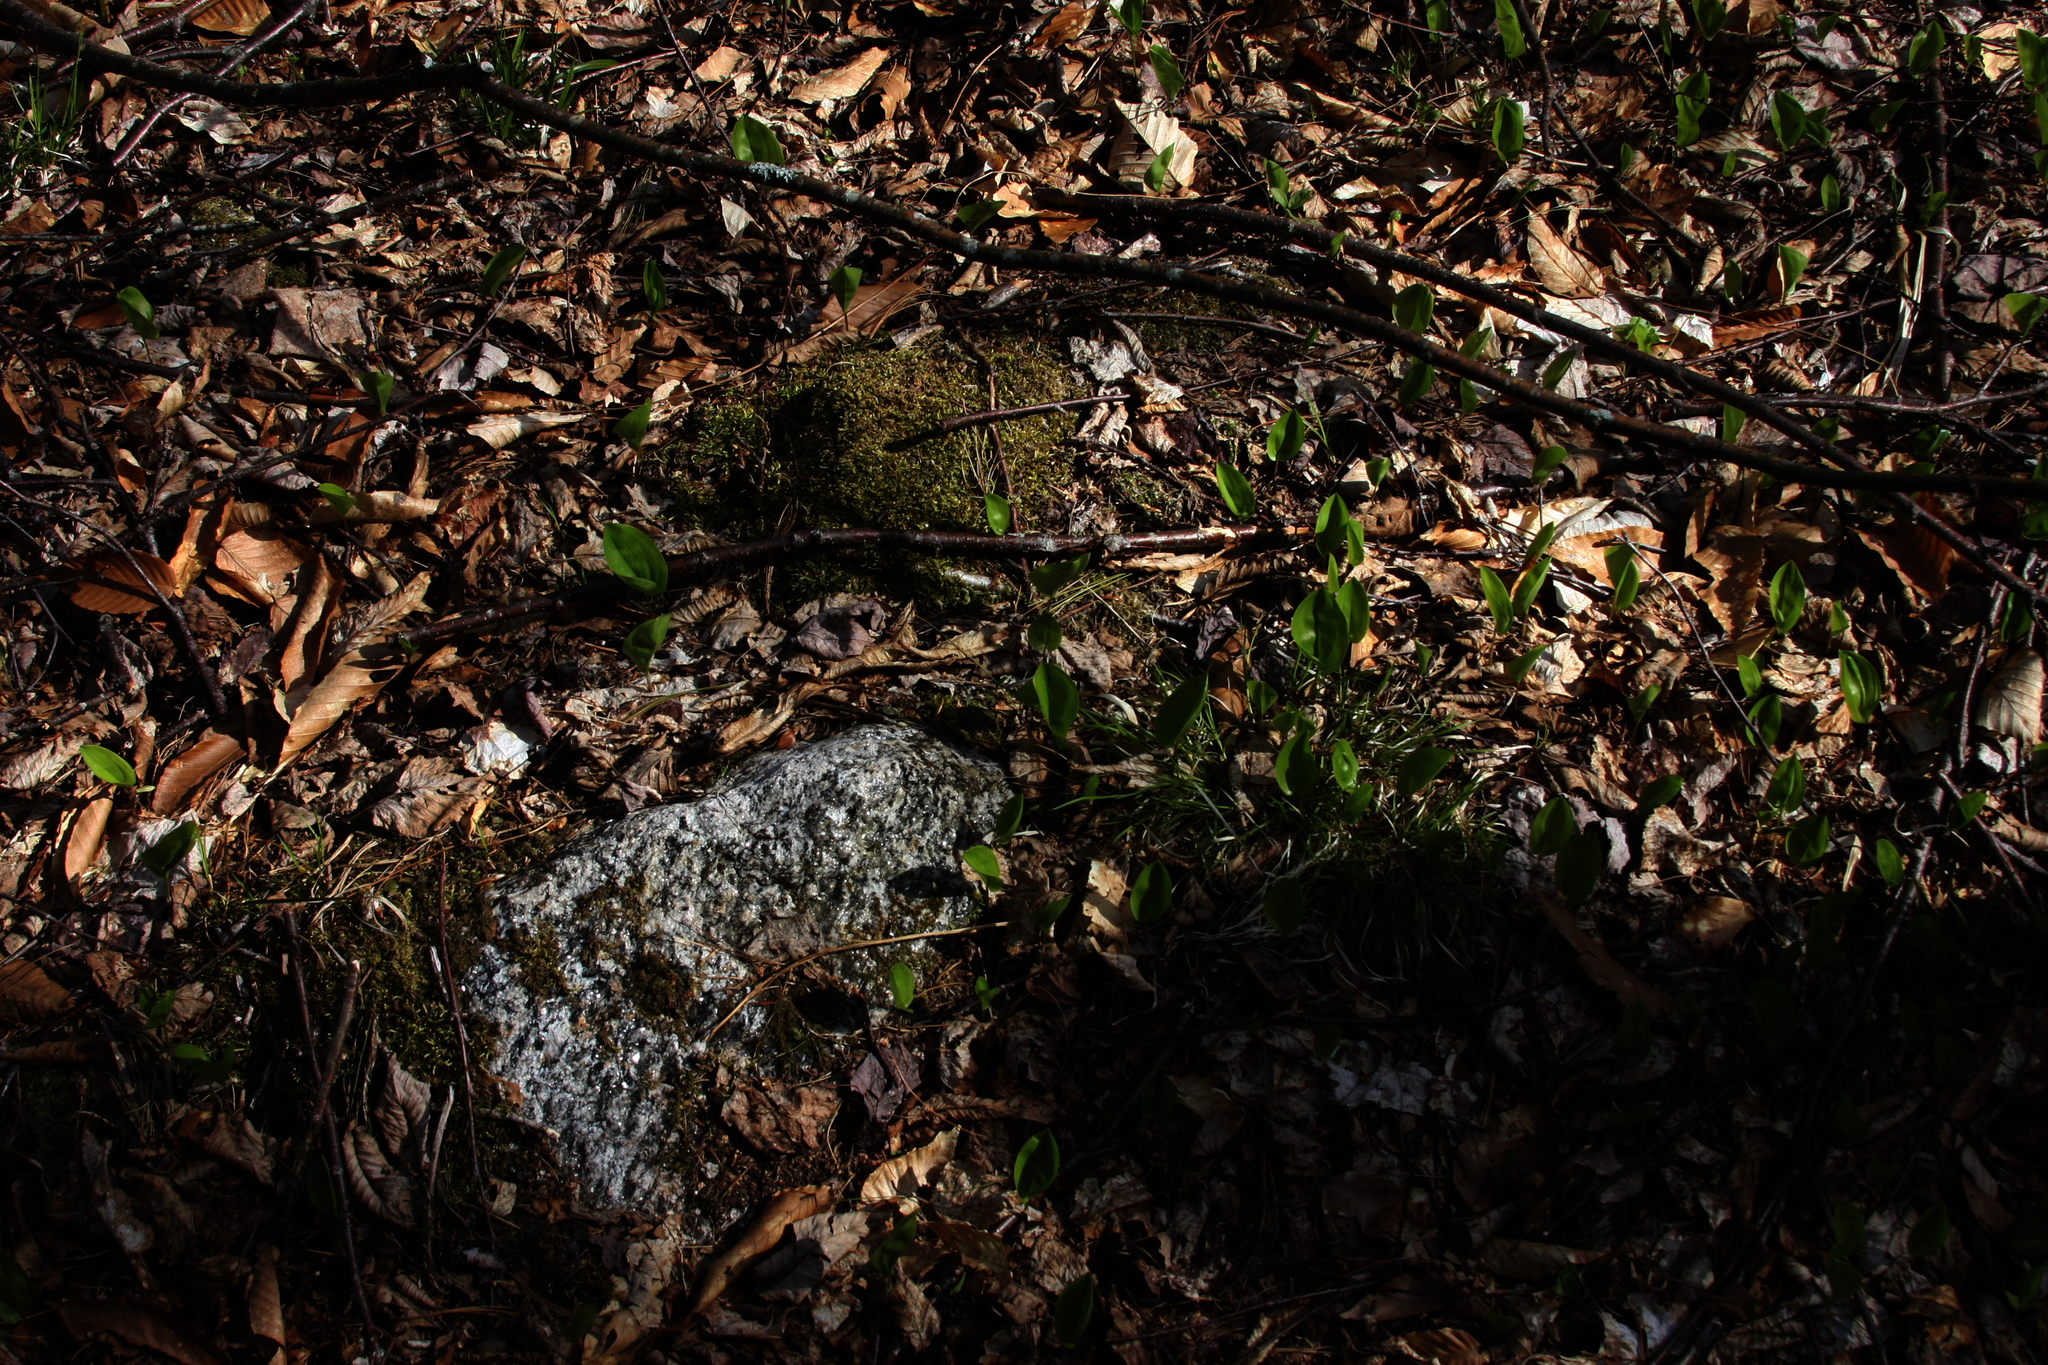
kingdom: Plantae
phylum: Tracheophyta
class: Liliopsida
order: Asparagales
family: Asparagaceae
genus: Maianthemum
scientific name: Maianthemum canadense
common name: False lily-of-the-valley
